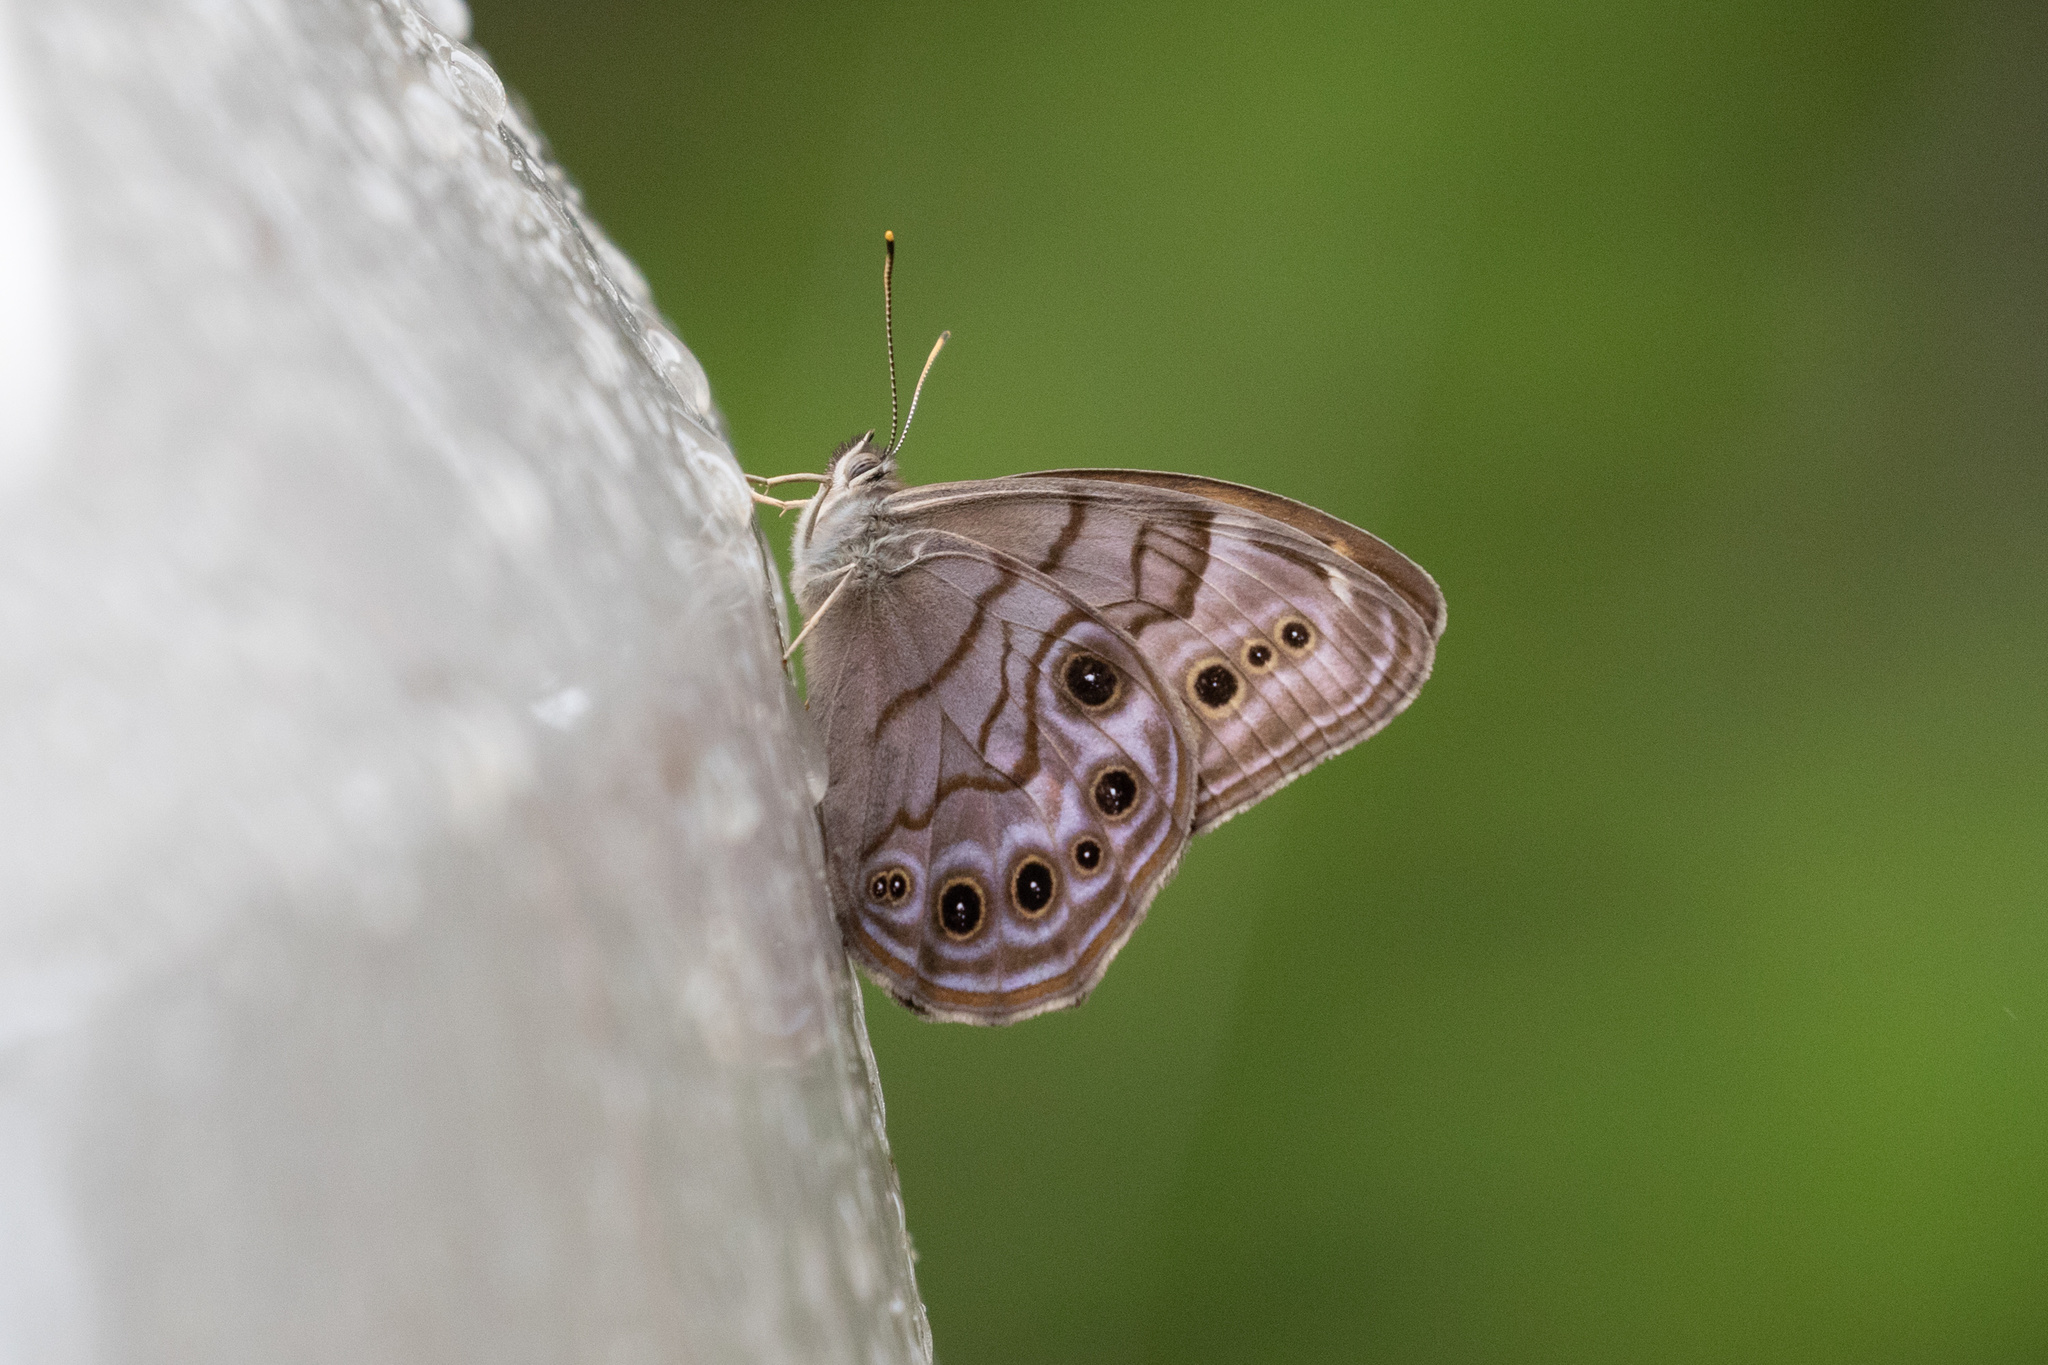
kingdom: Animalia
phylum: Arthropoda
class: Insecta
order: Lepidoptera
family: Nymphalidae
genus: Lethe
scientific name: Lethe anthedon
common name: Northern pearly-eye
